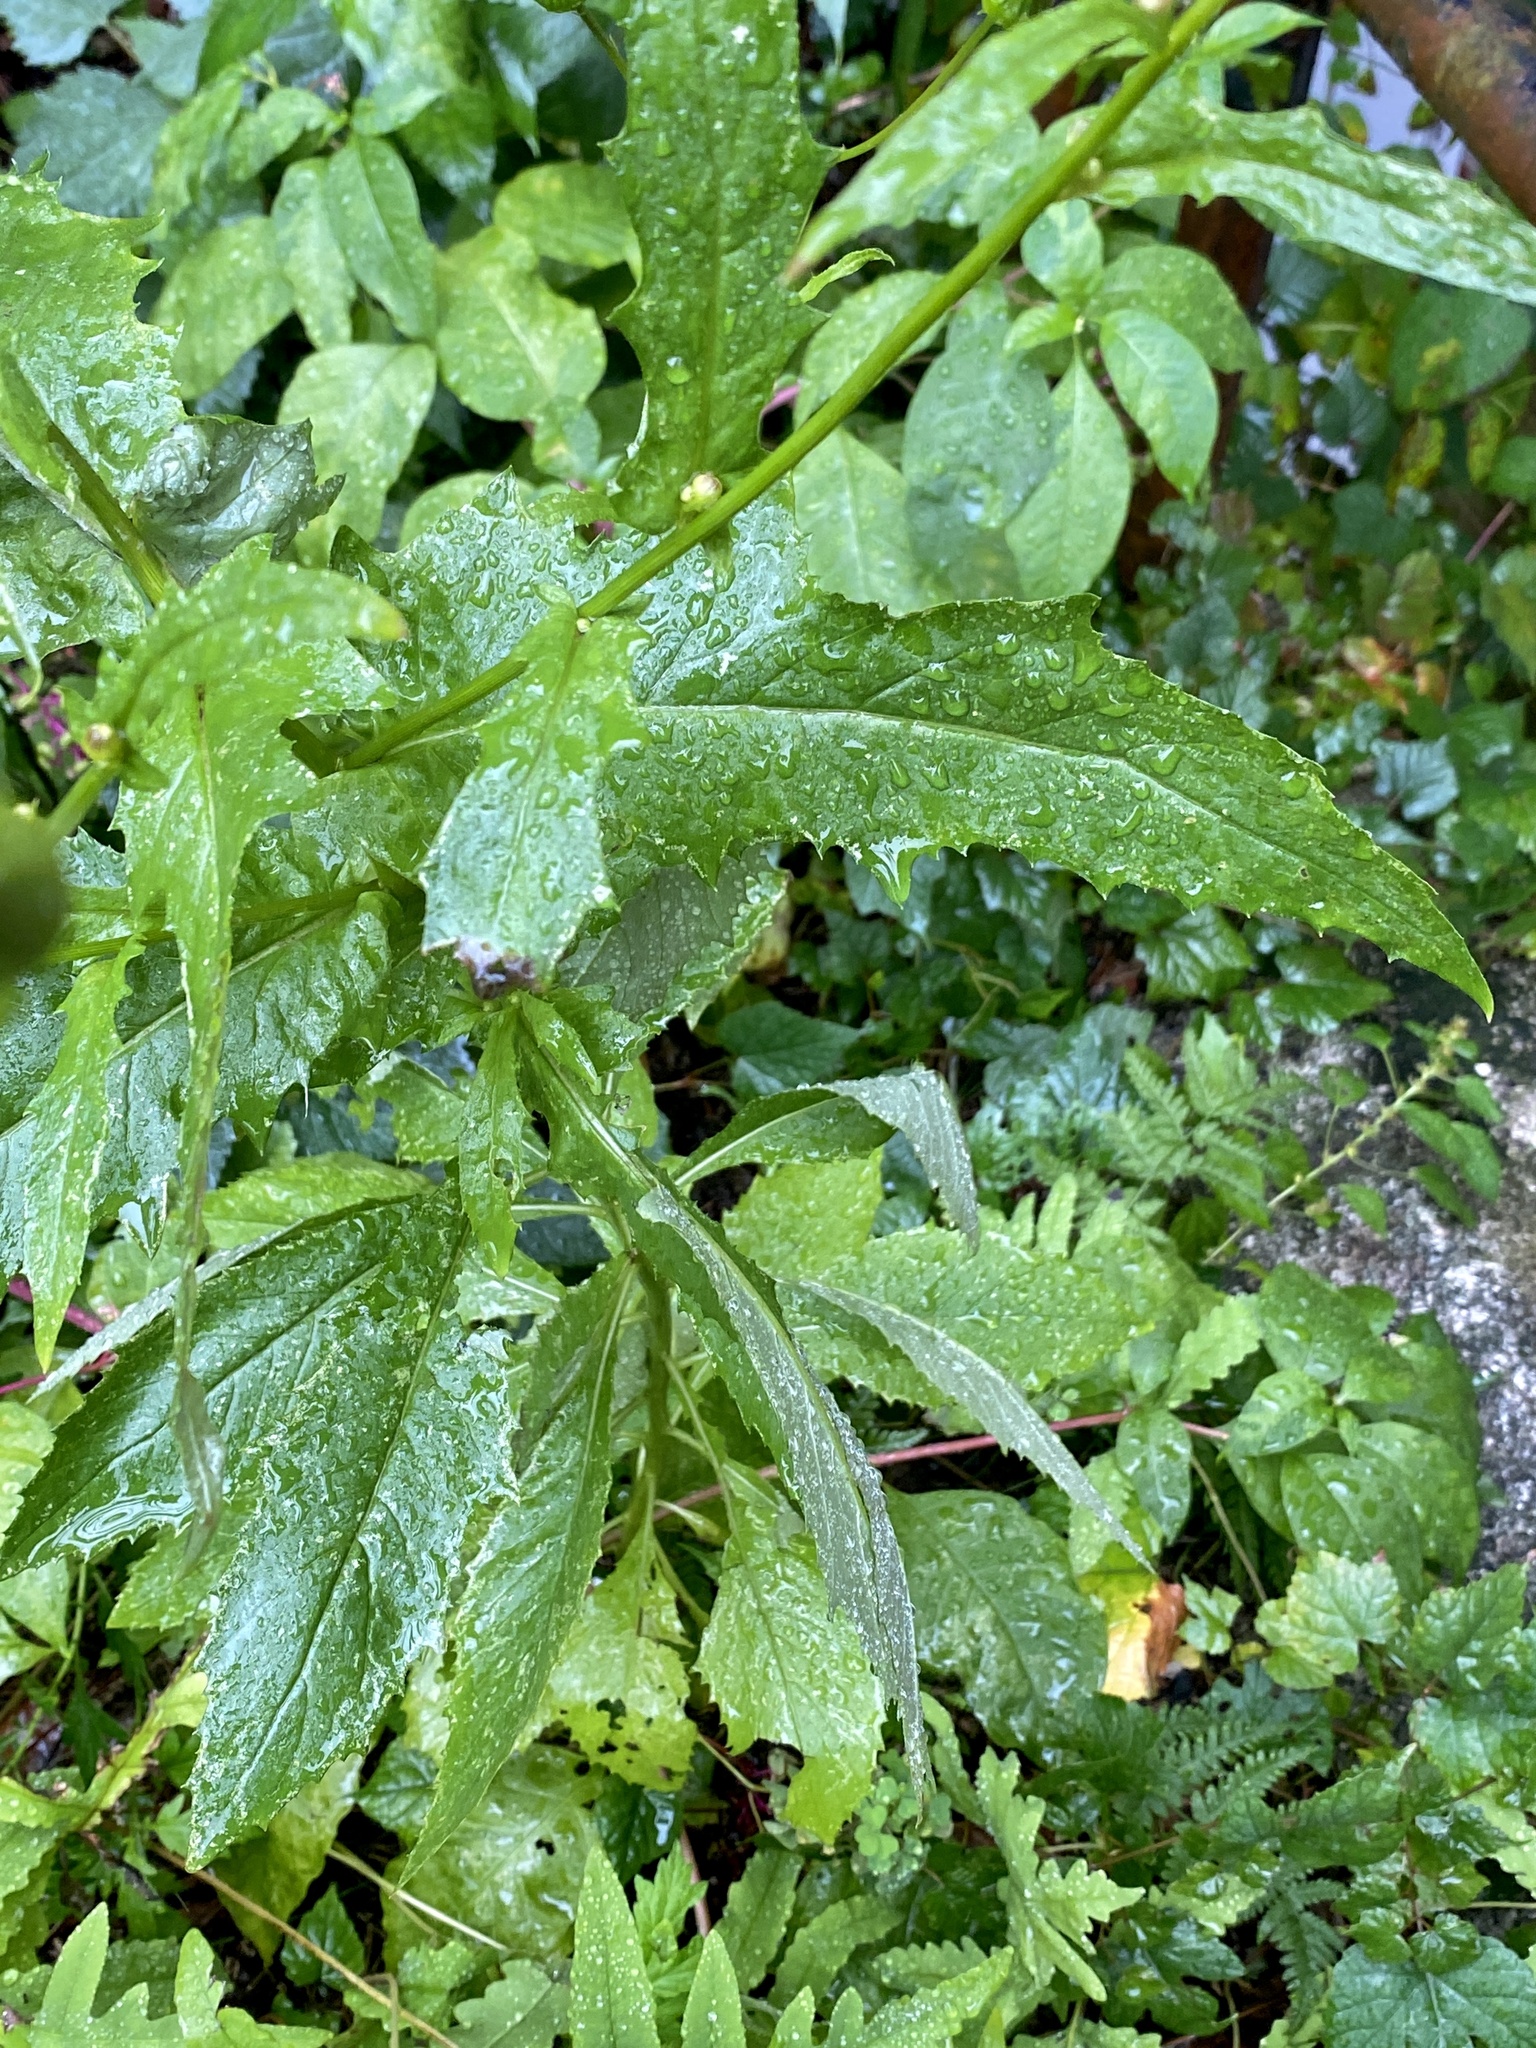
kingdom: Plantae
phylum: Tracheophyta
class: Magnoliopsida
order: Asterales
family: Asteraceae
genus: Erechtites
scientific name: Erechtites hieraciifolius
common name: American burnweed
